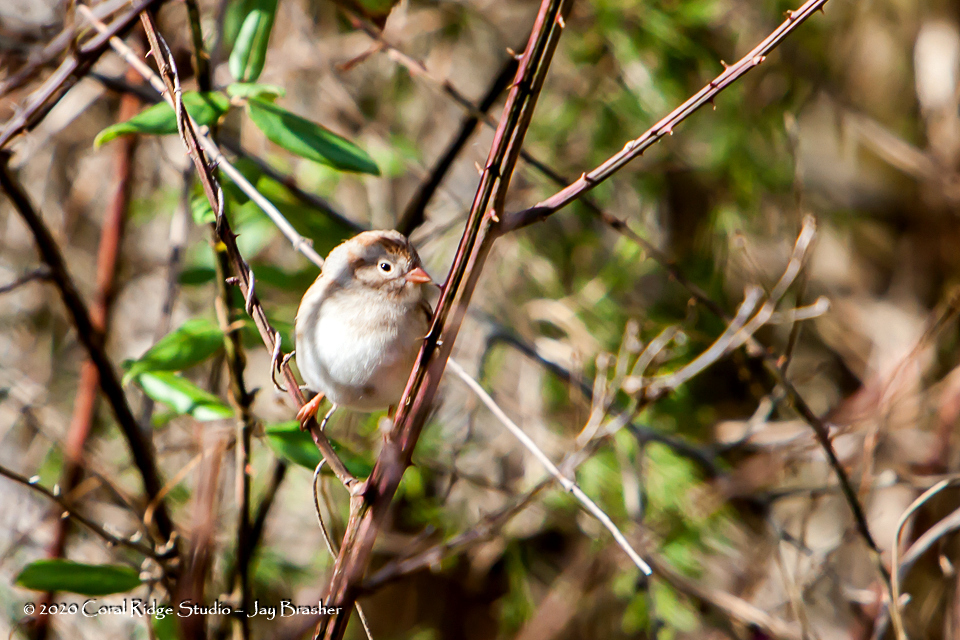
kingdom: Animalia
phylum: Chordata
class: Aves
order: Passeriformes
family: Passerellidae
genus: Spizella
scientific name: Spizella pusilla
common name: Field sparrow
